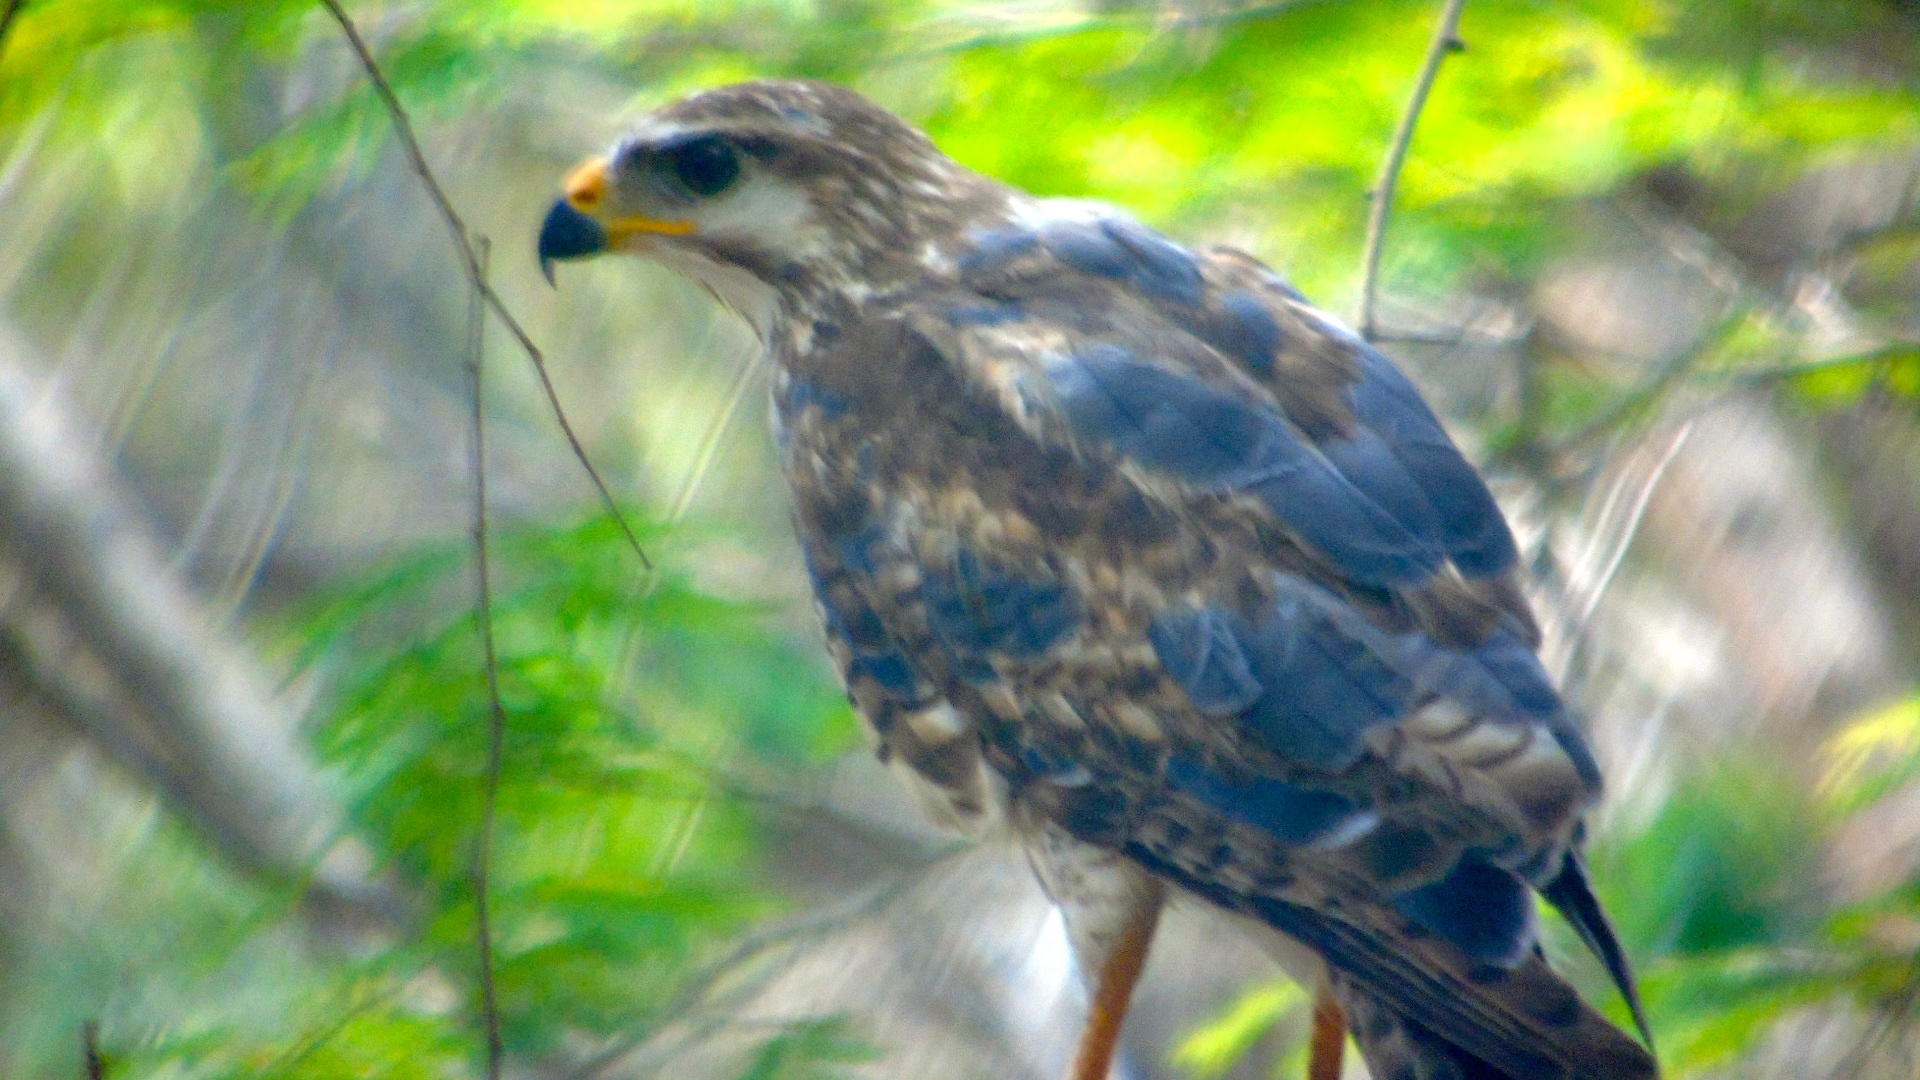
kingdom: Animalia
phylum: Chordata
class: Aves
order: Accipitriformes
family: Accipitridae
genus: Buteo
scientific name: Buteo nitidus
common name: Grey-lined hawk
